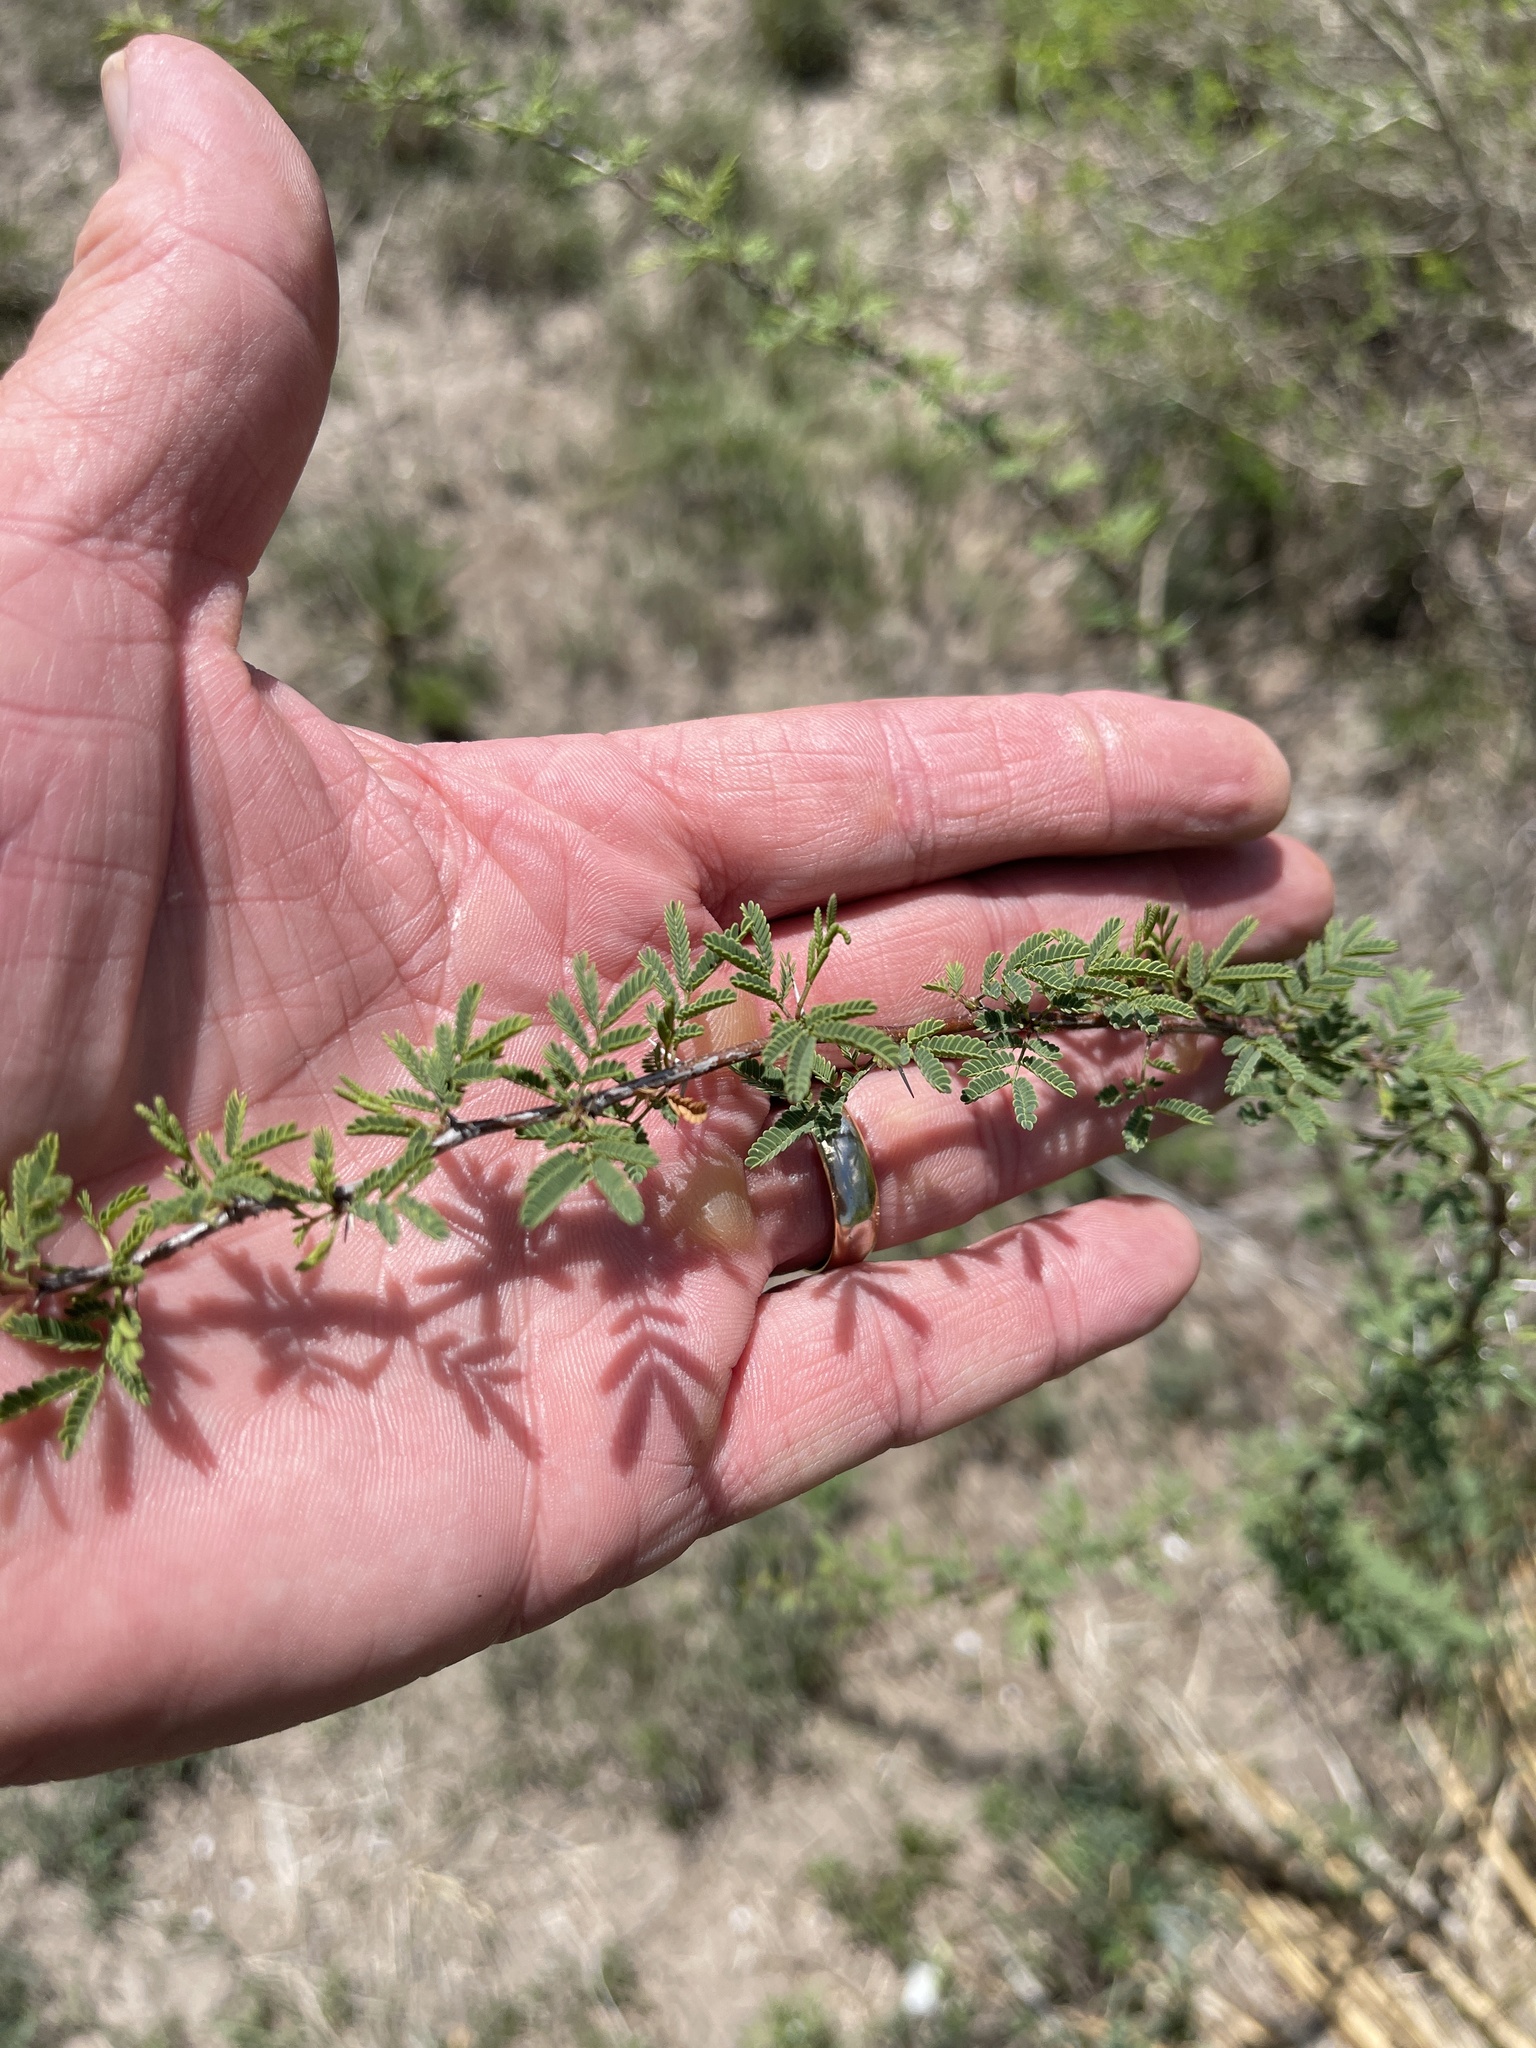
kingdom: Plantae
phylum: Tracheophyta
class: Magnoliopsida
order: Fabales
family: Fabaceae
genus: Vachellia
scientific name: Vachellia schaffneri
